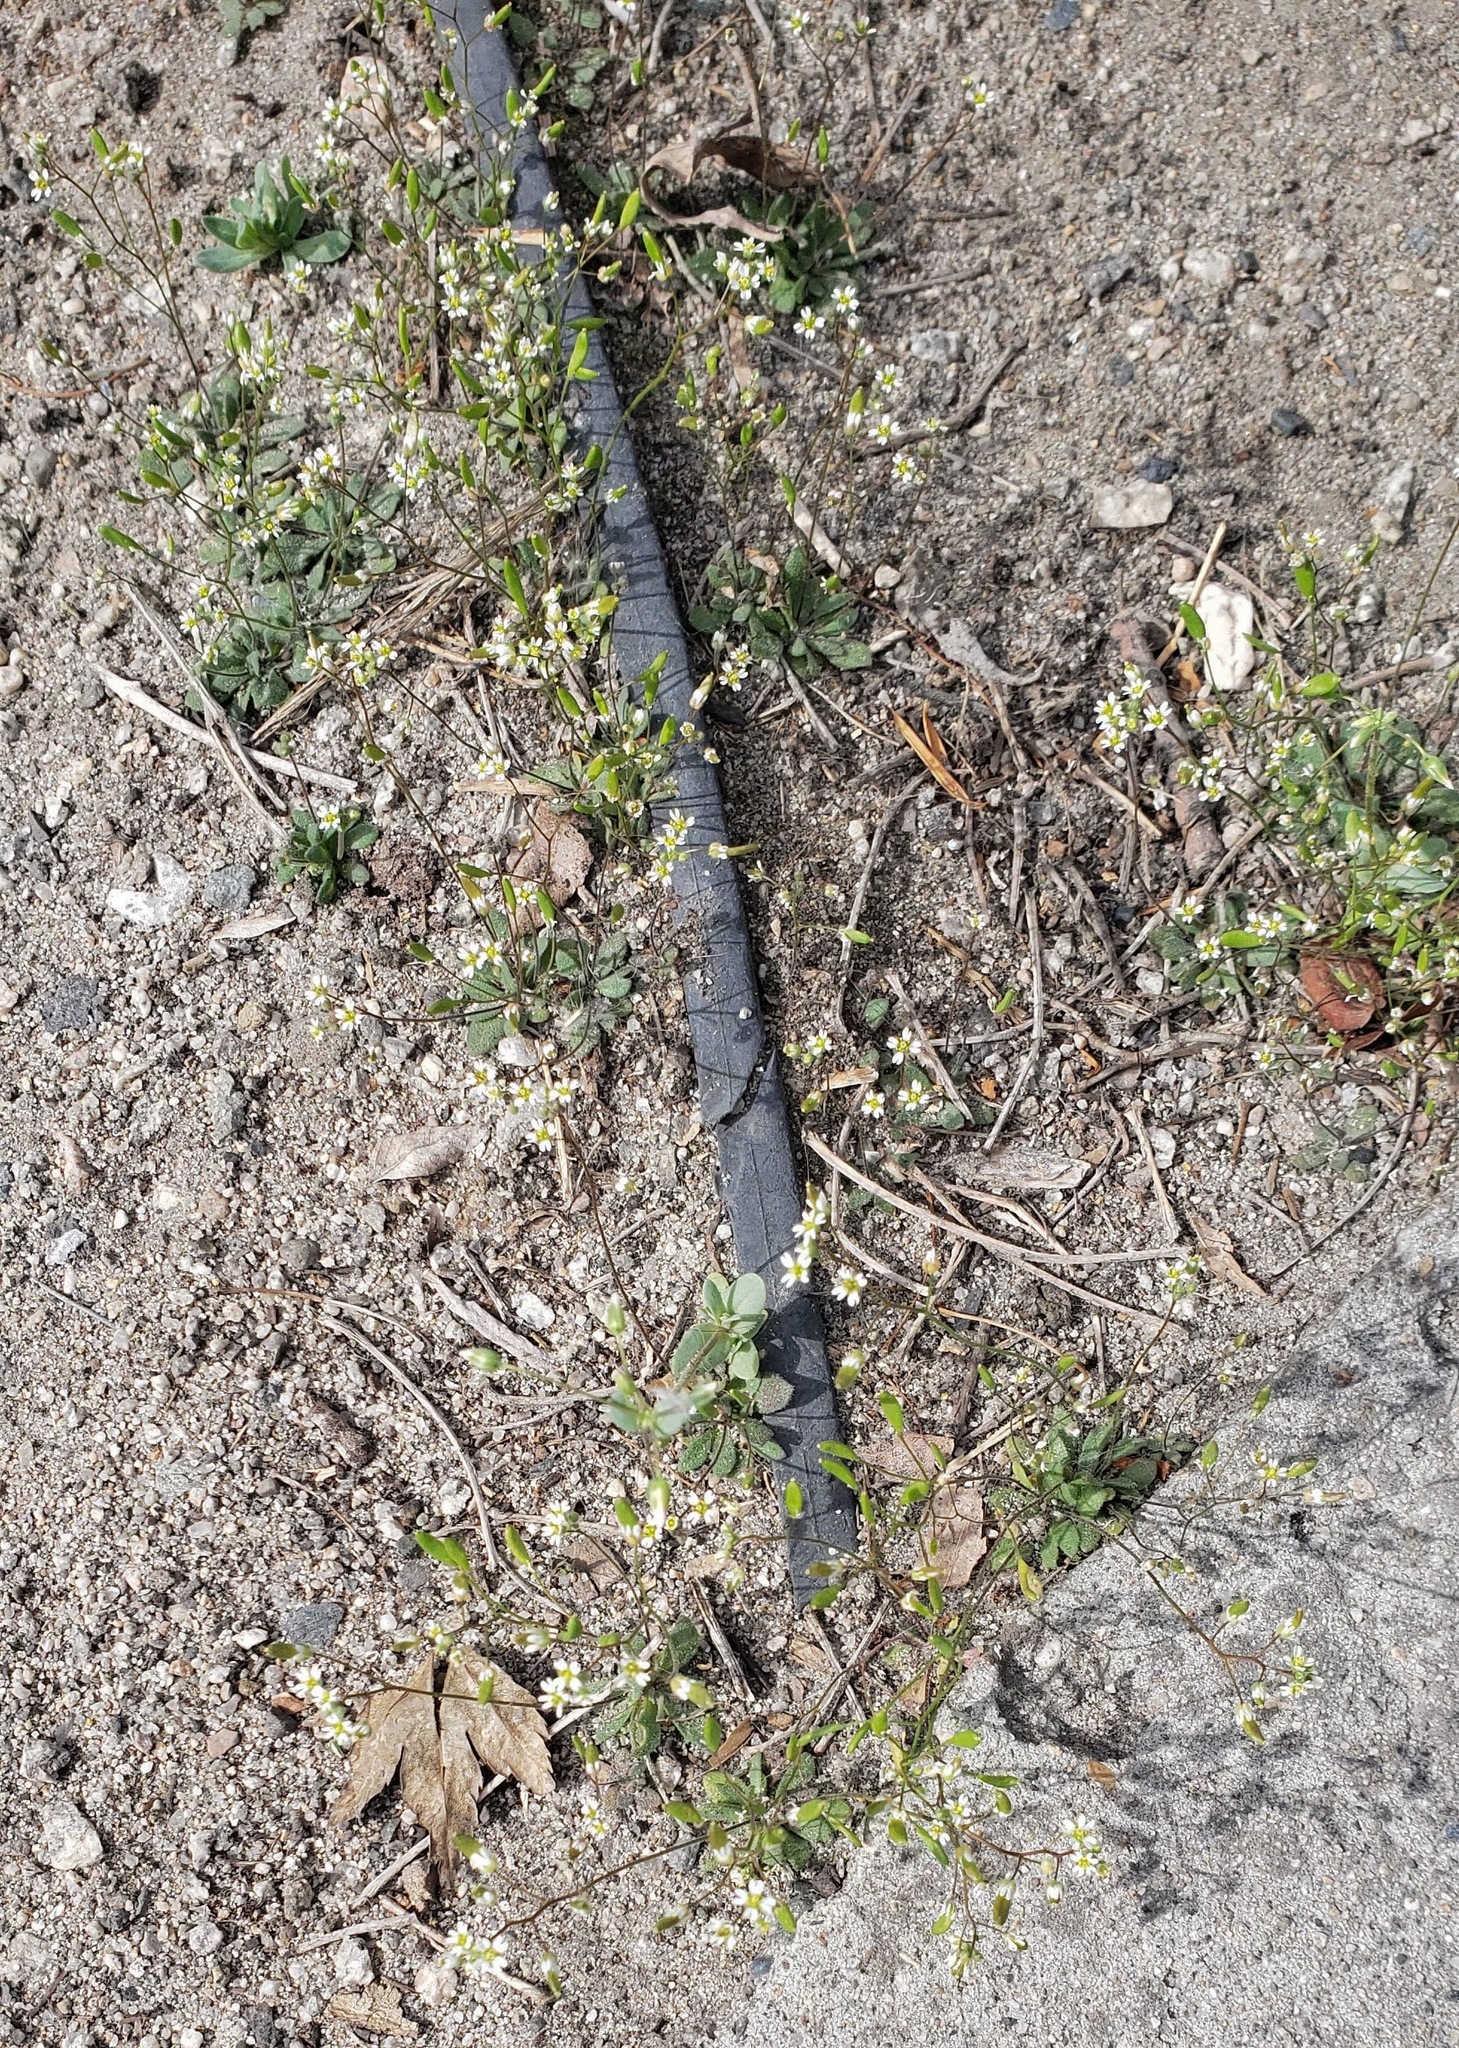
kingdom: Plantae
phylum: Tracheophyta
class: Magnoliopsida
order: Brassicales
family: Brassicaceae
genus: Draba
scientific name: Draba verna
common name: Spring draba
